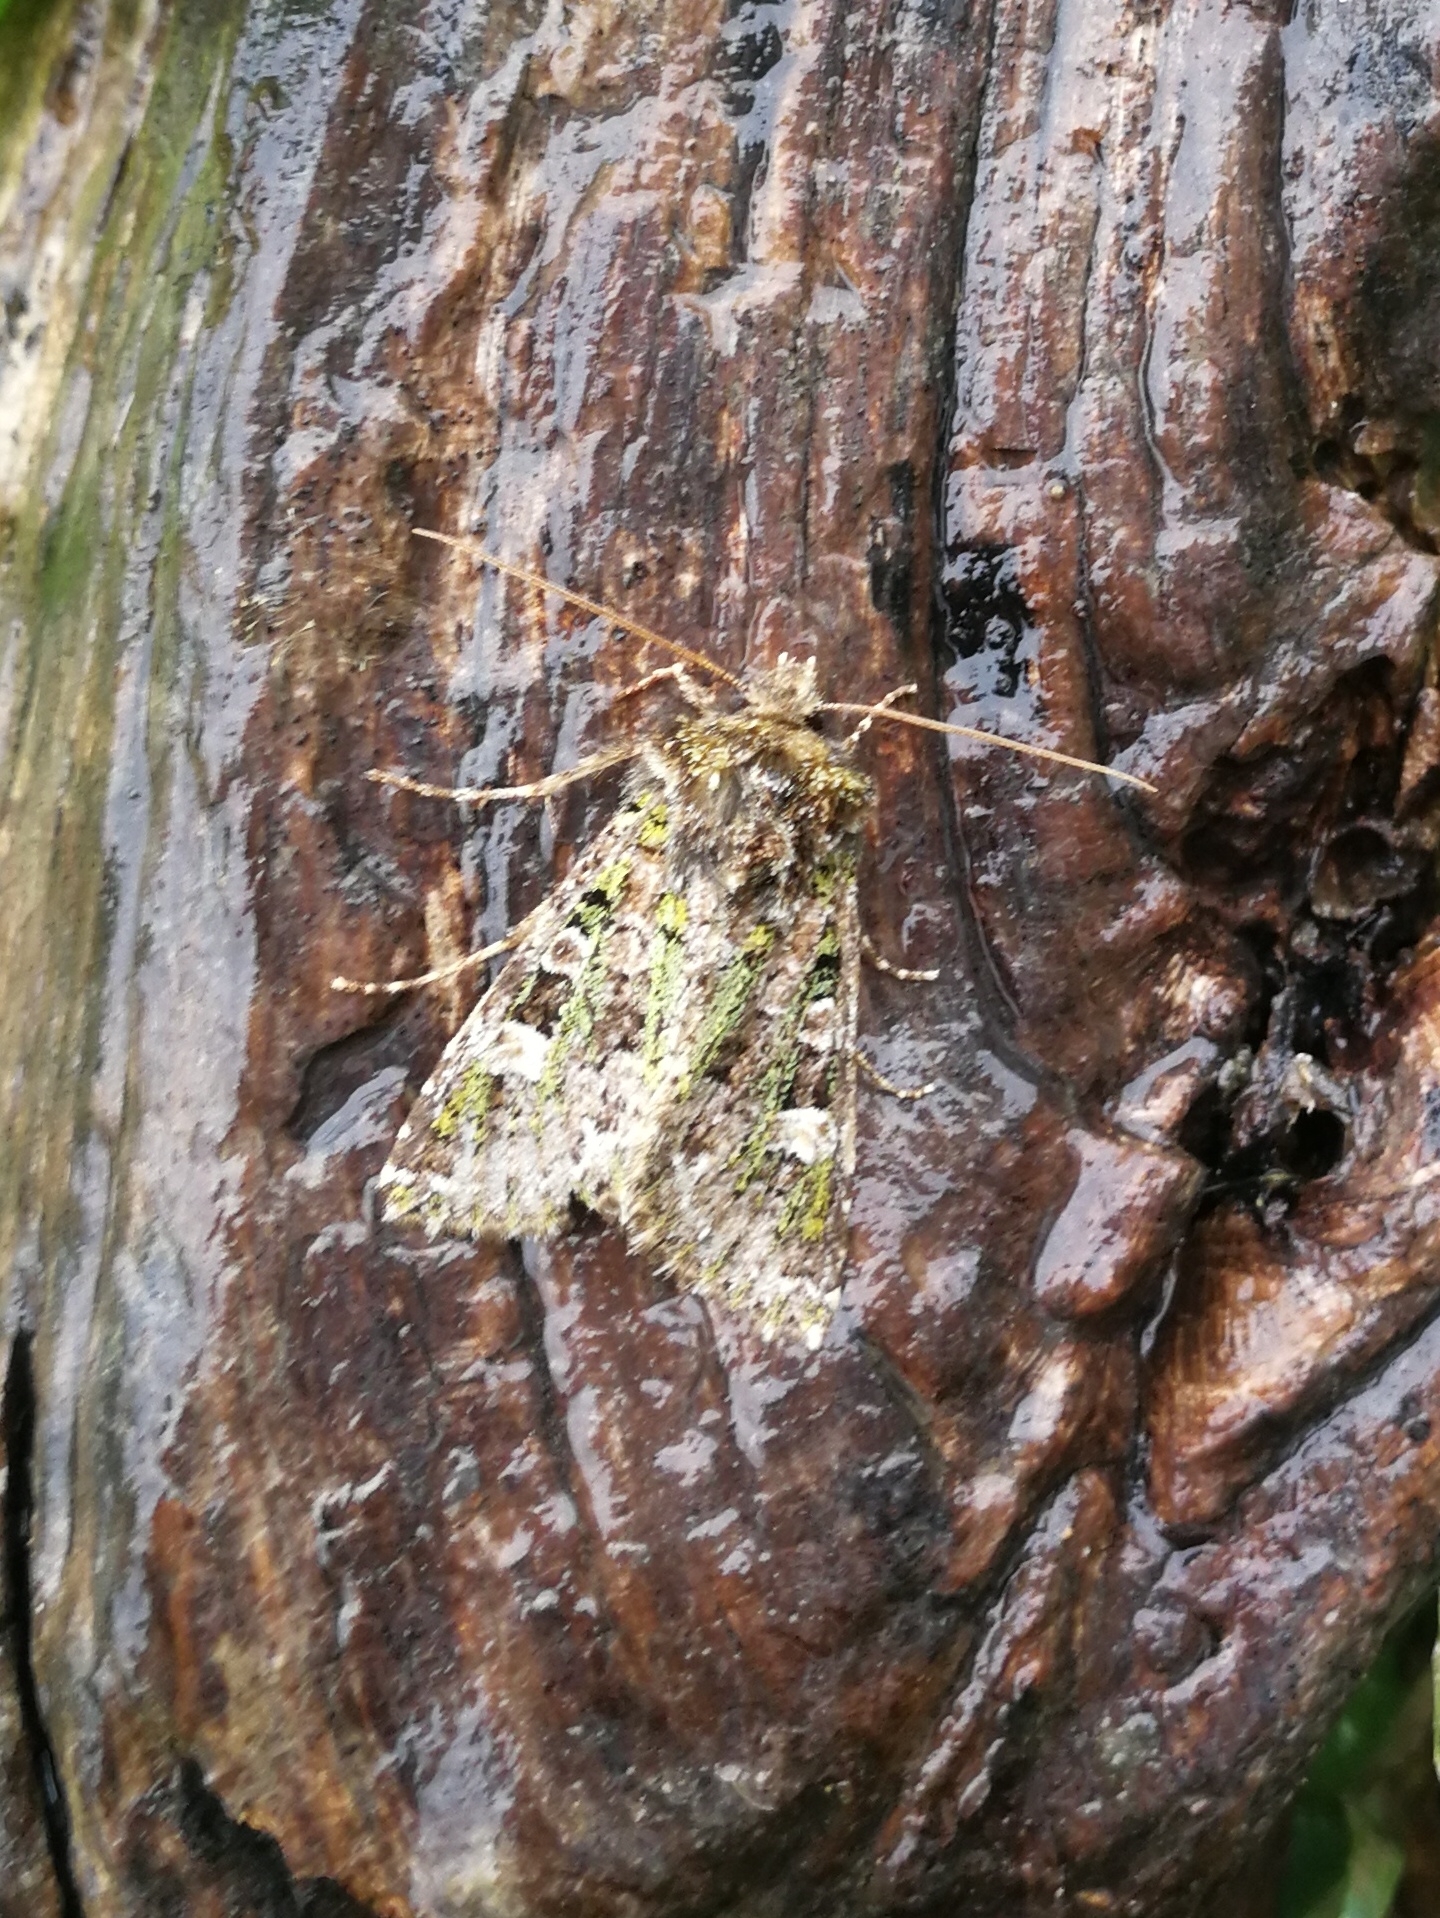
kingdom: Animalia
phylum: Arthropoda
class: Insecta
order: Lepidoptera
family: Noctuidae
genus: Valeria
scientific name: Valeria jaspidea
